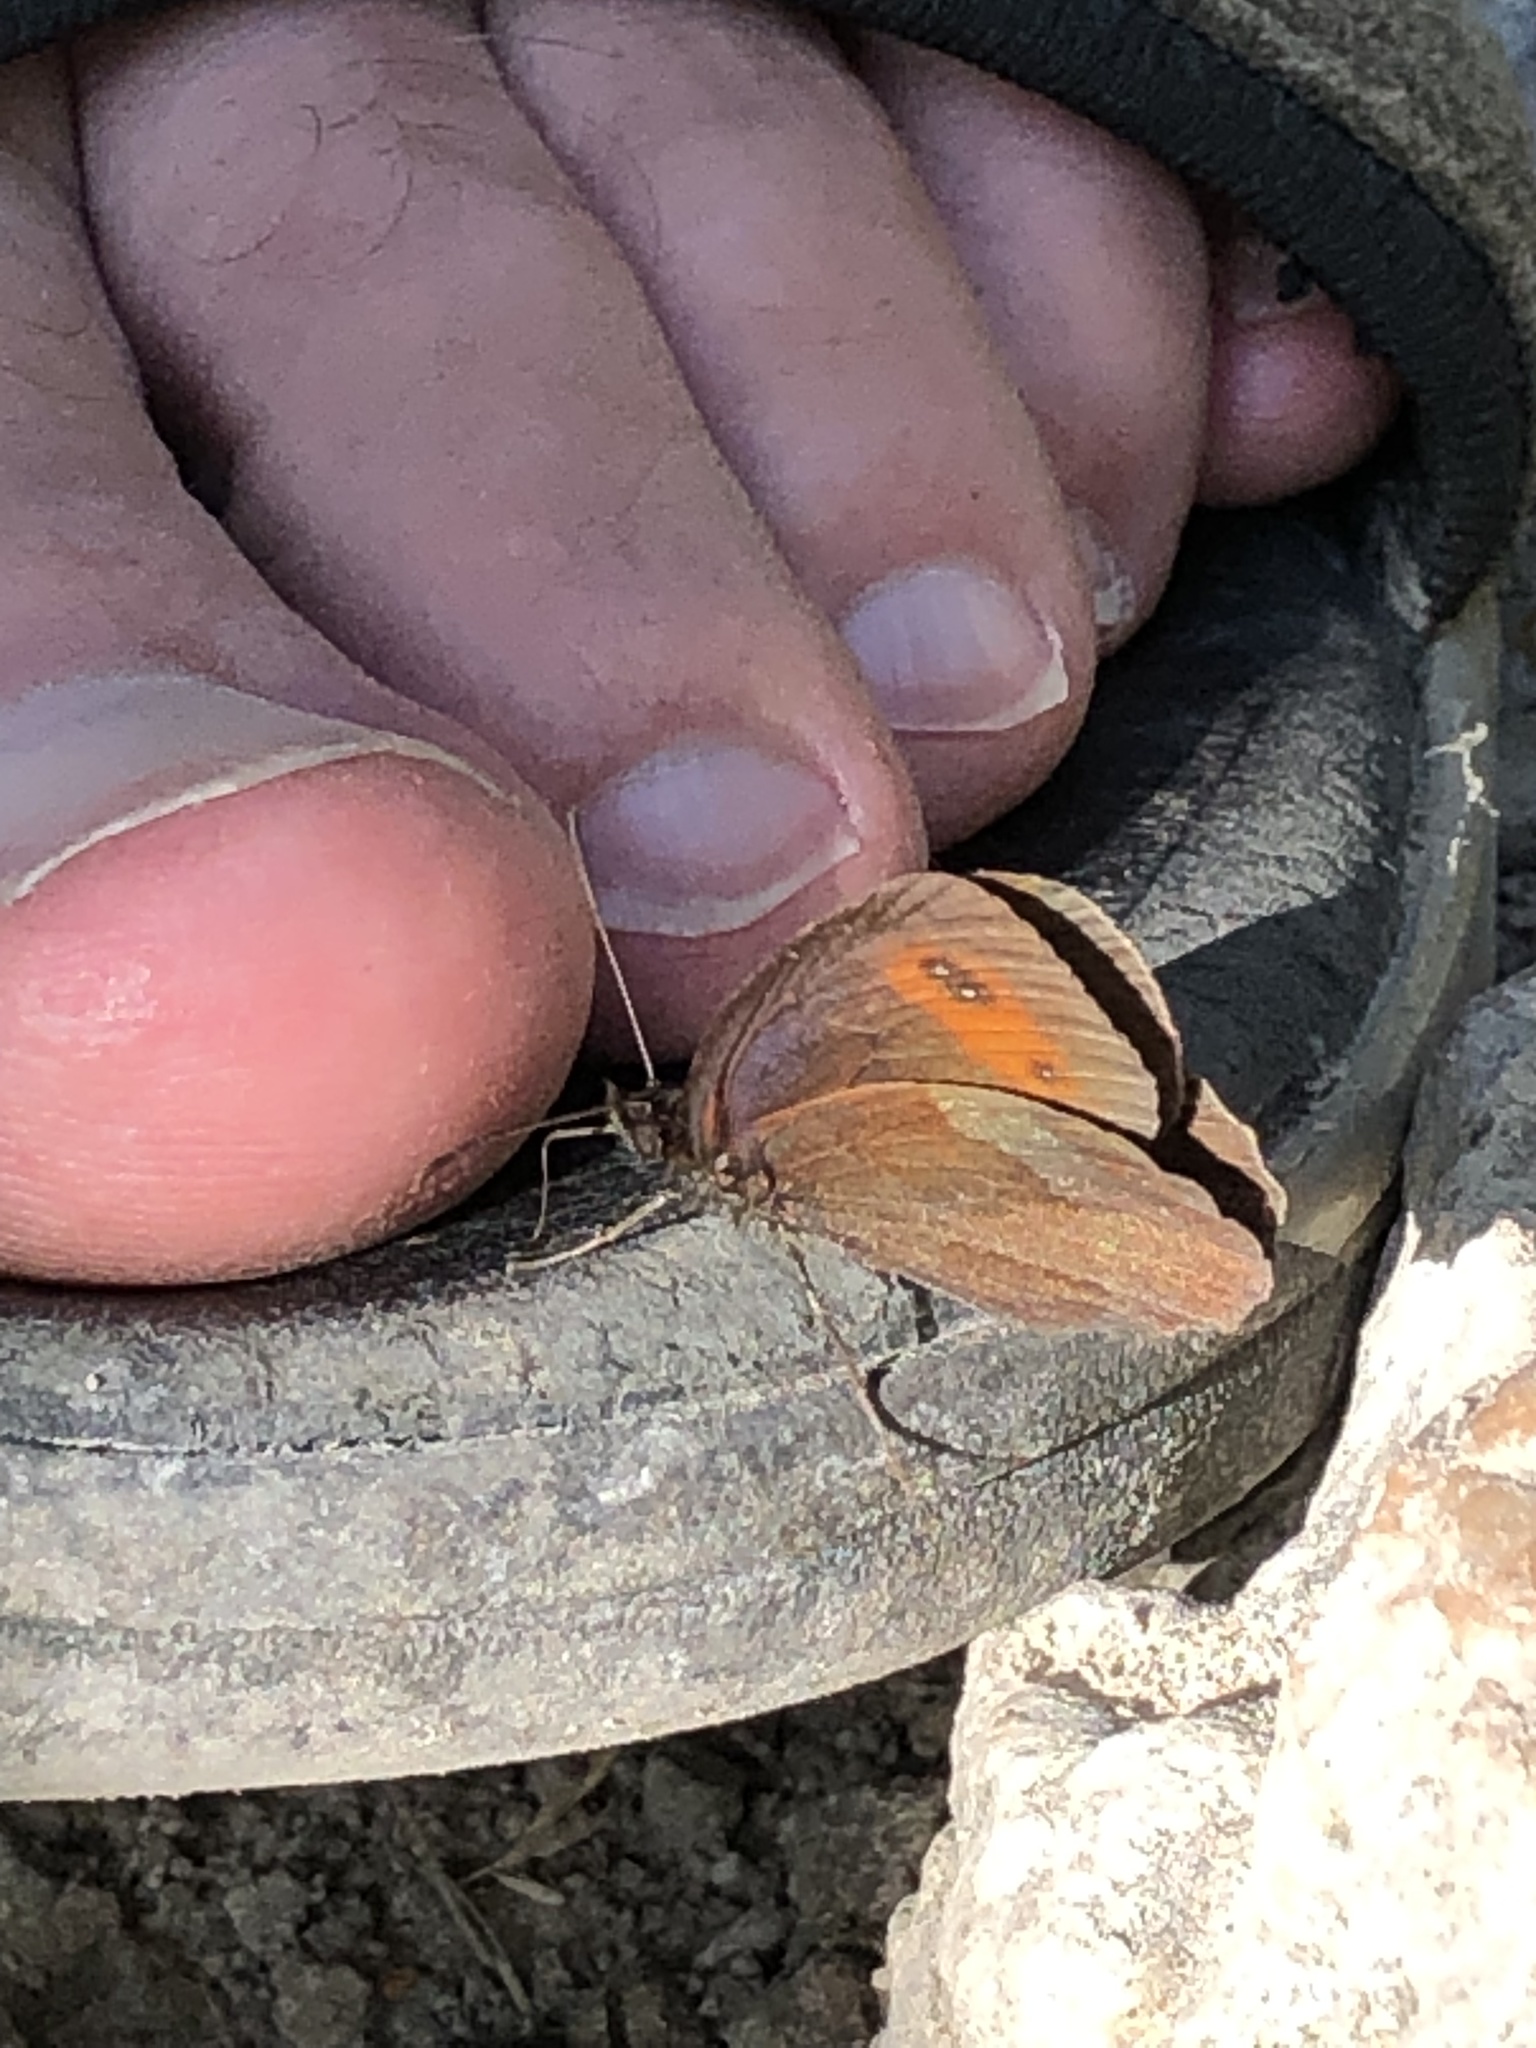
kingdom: Animalia
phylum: Arthropoda
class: Insecta
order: Lepidoptera
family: Nymphalidae
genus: Erebia
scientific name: Erebia aethiops
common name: Scotch argus
